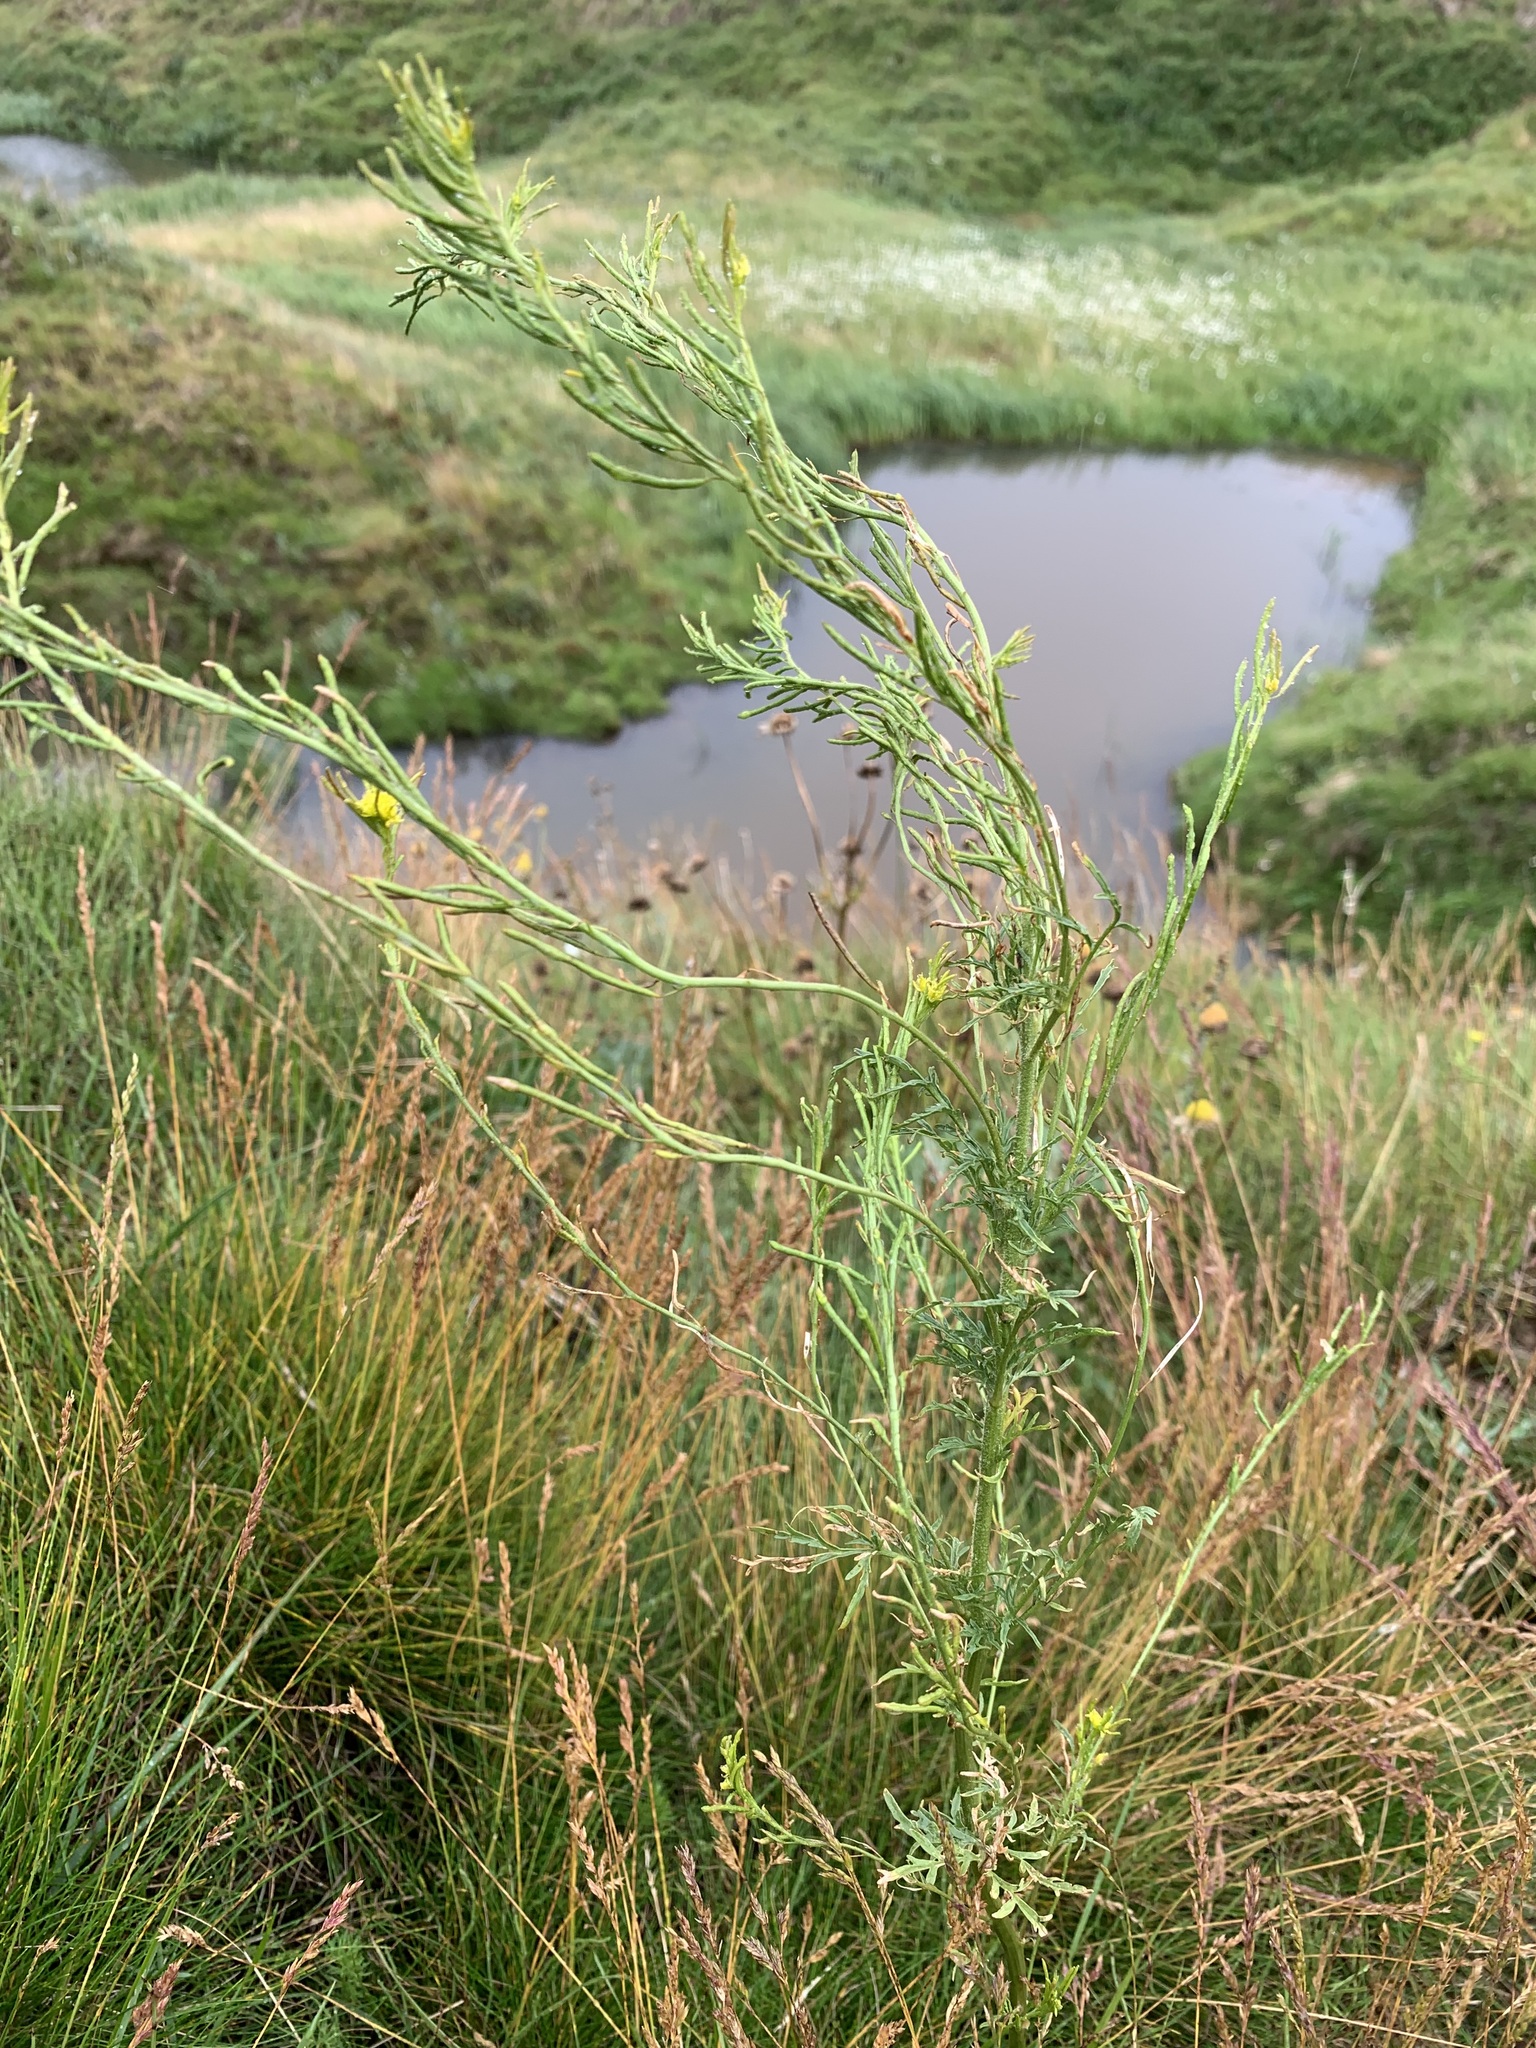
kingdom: Plantae
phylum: Tracheophyta
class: Magnoliopsida
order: Brassicales
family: Brassicaceae
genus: Descurainia
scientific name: Descurainia sophioides
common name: Northern tansy mustard
